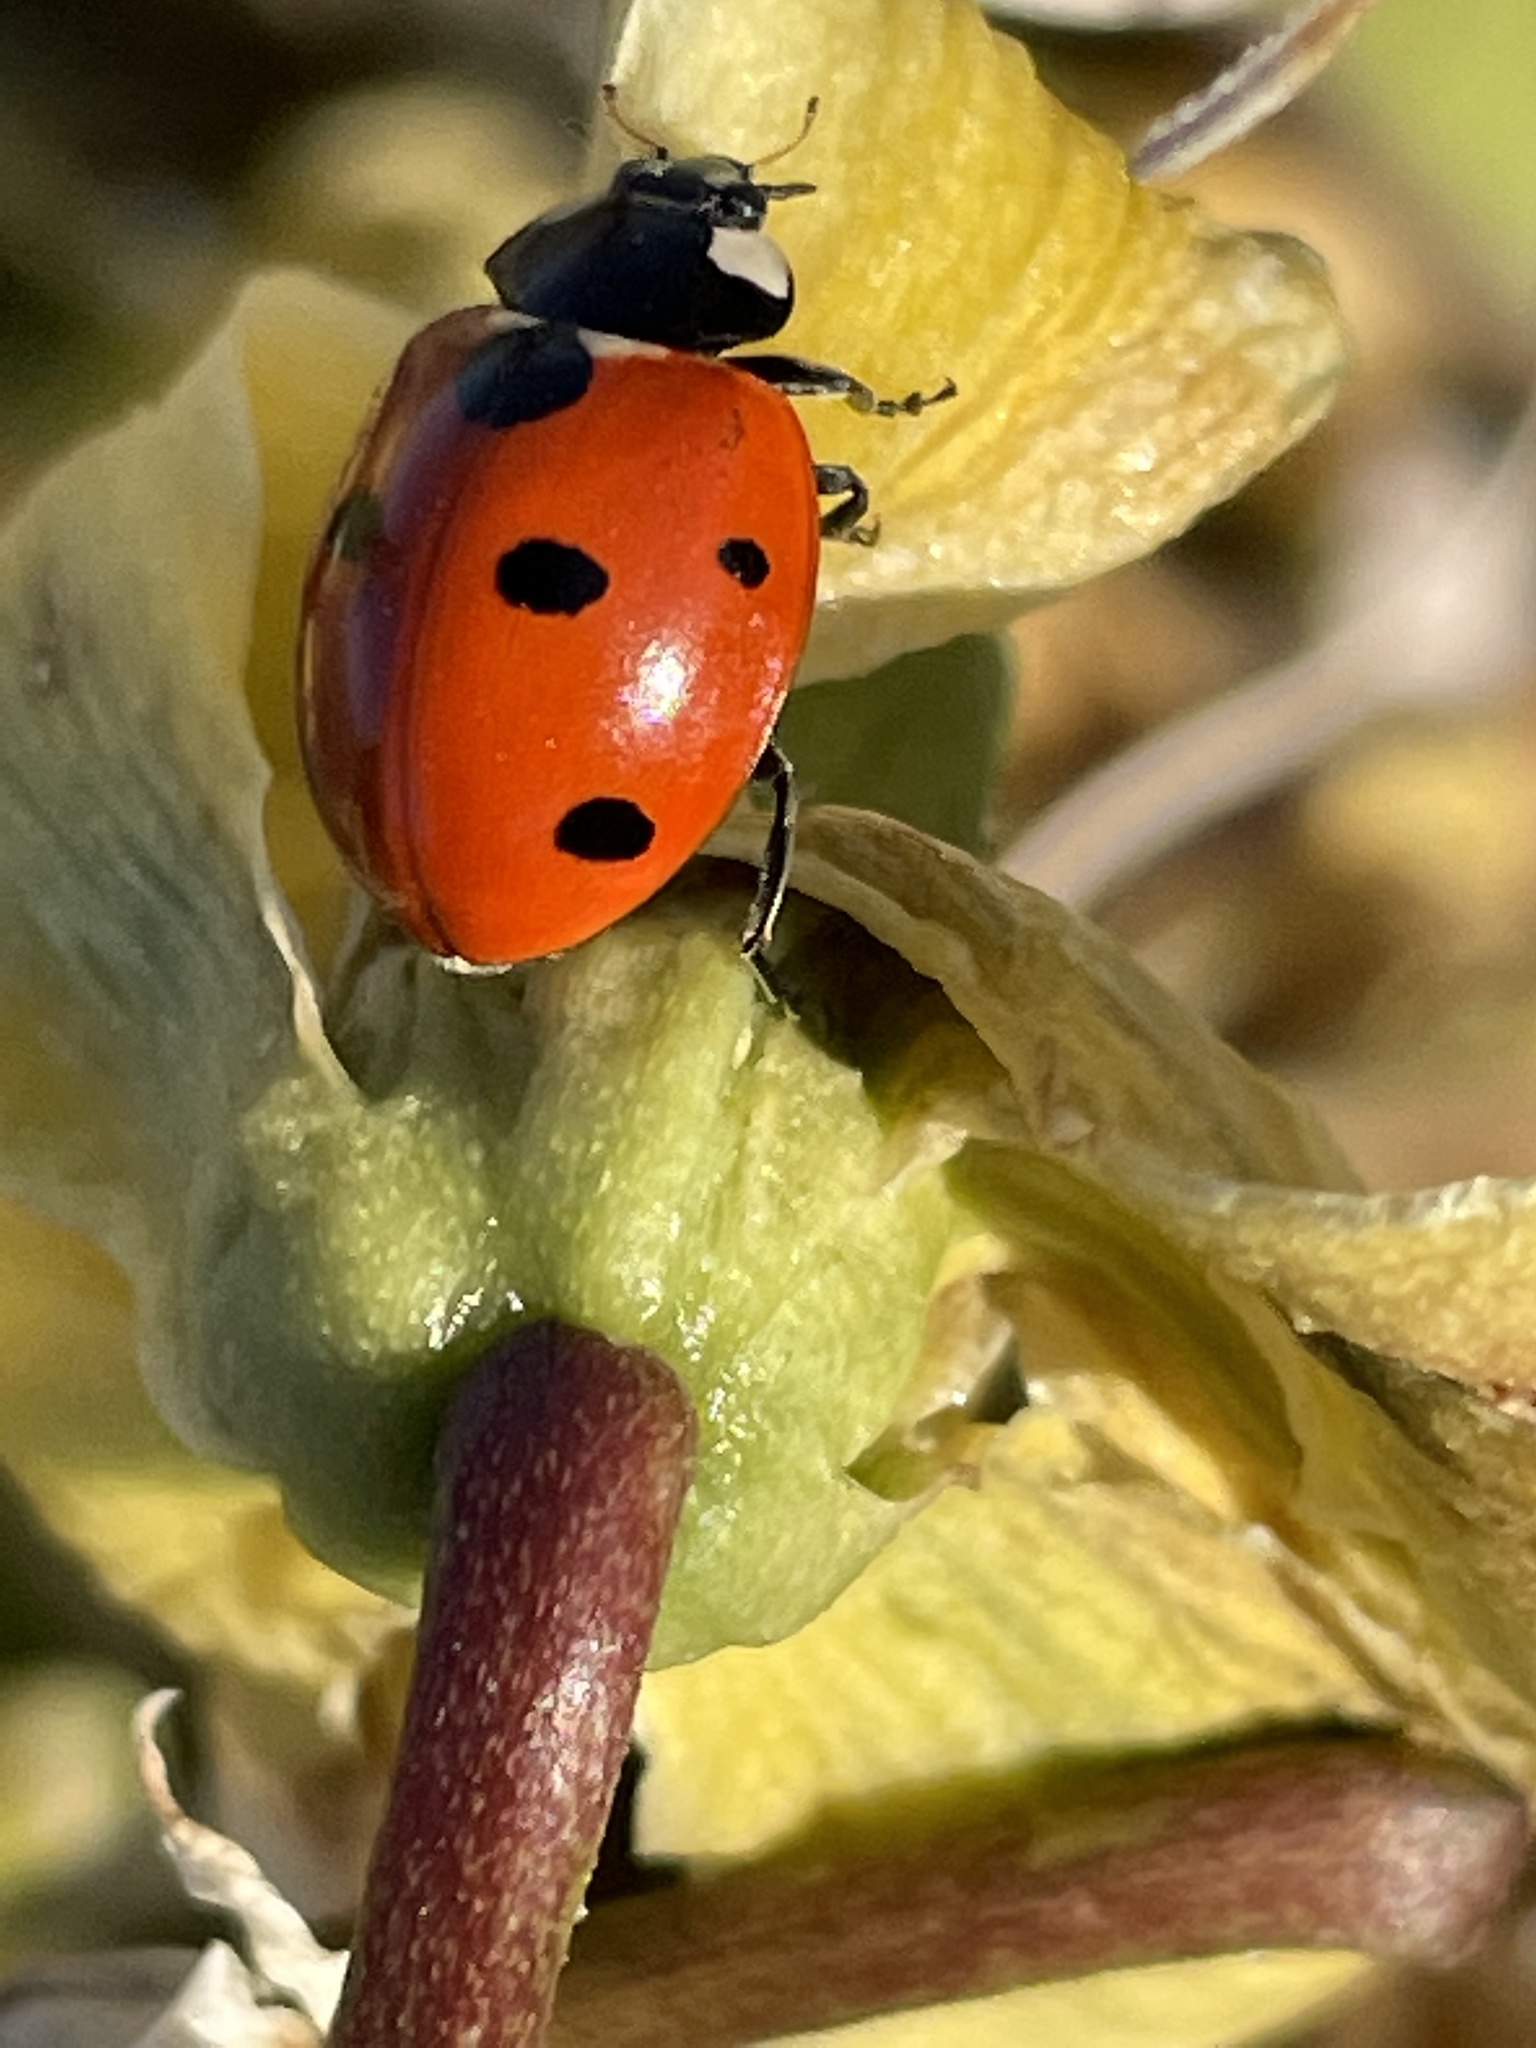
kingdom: Animalia
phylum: Arthropoda
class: Insecta
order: Coleoptera
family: Coccinellidae
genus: Coccinella
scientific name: Coccinella septempunctata
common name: Sevenspotted lady beetle
